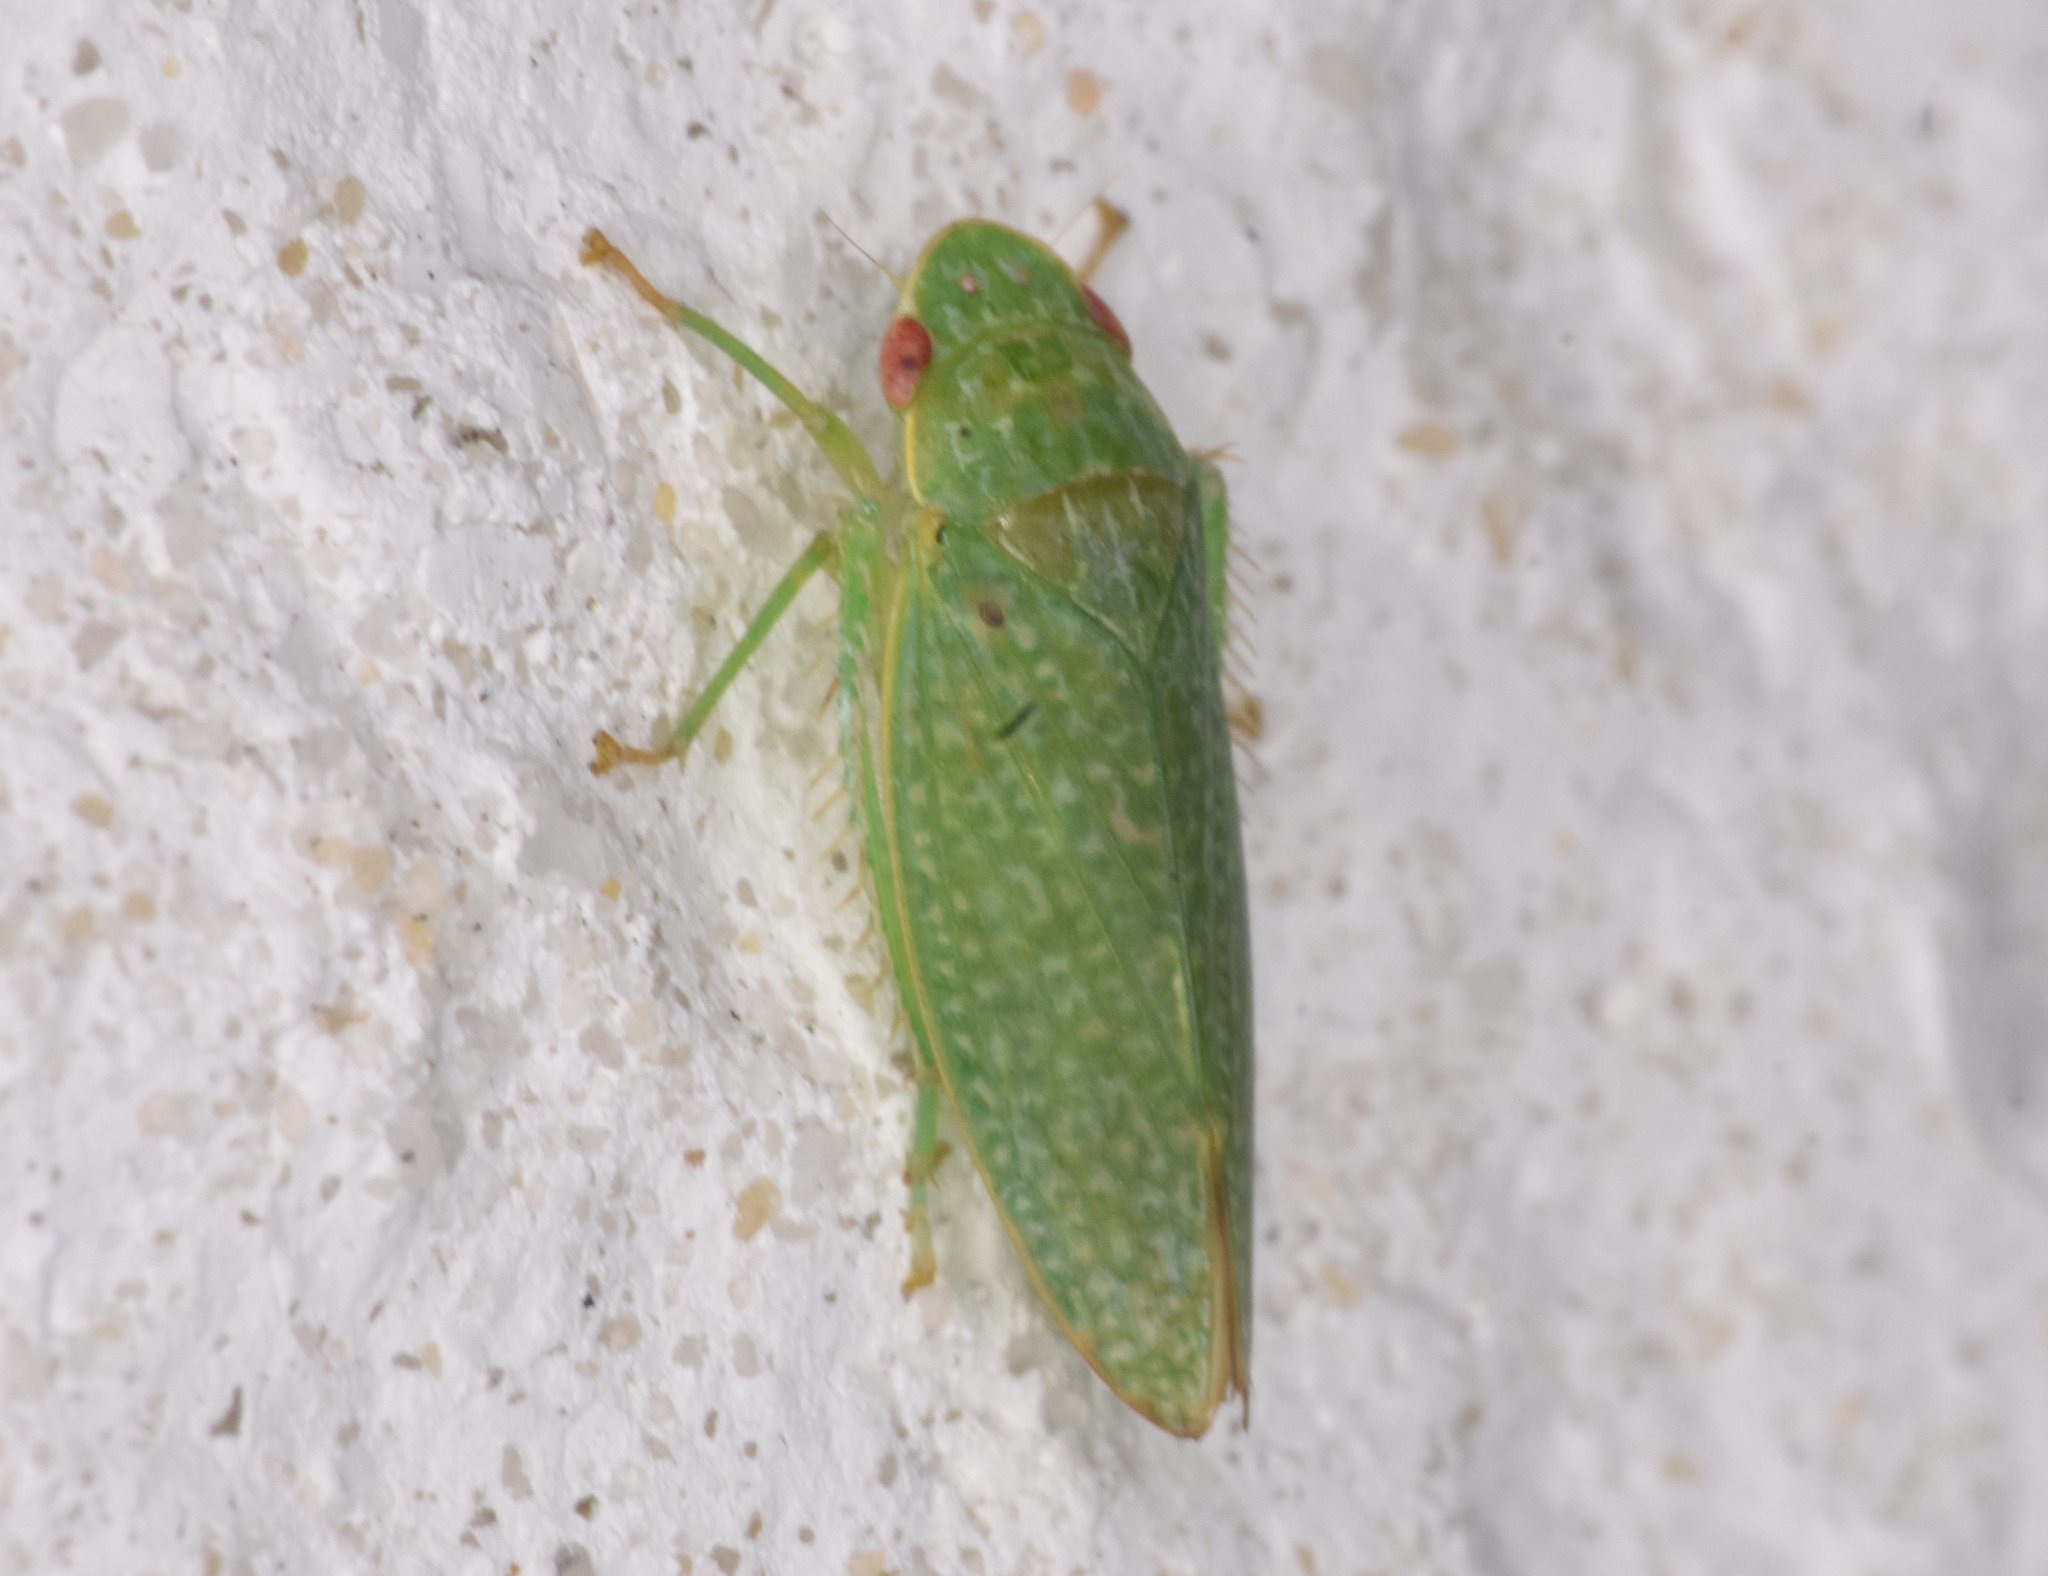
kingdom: Animalia
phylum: Arthropoda
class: Insecta
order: Hemiptera
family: Cicadellidae
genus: Rugosana
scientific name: Rugosana querci
